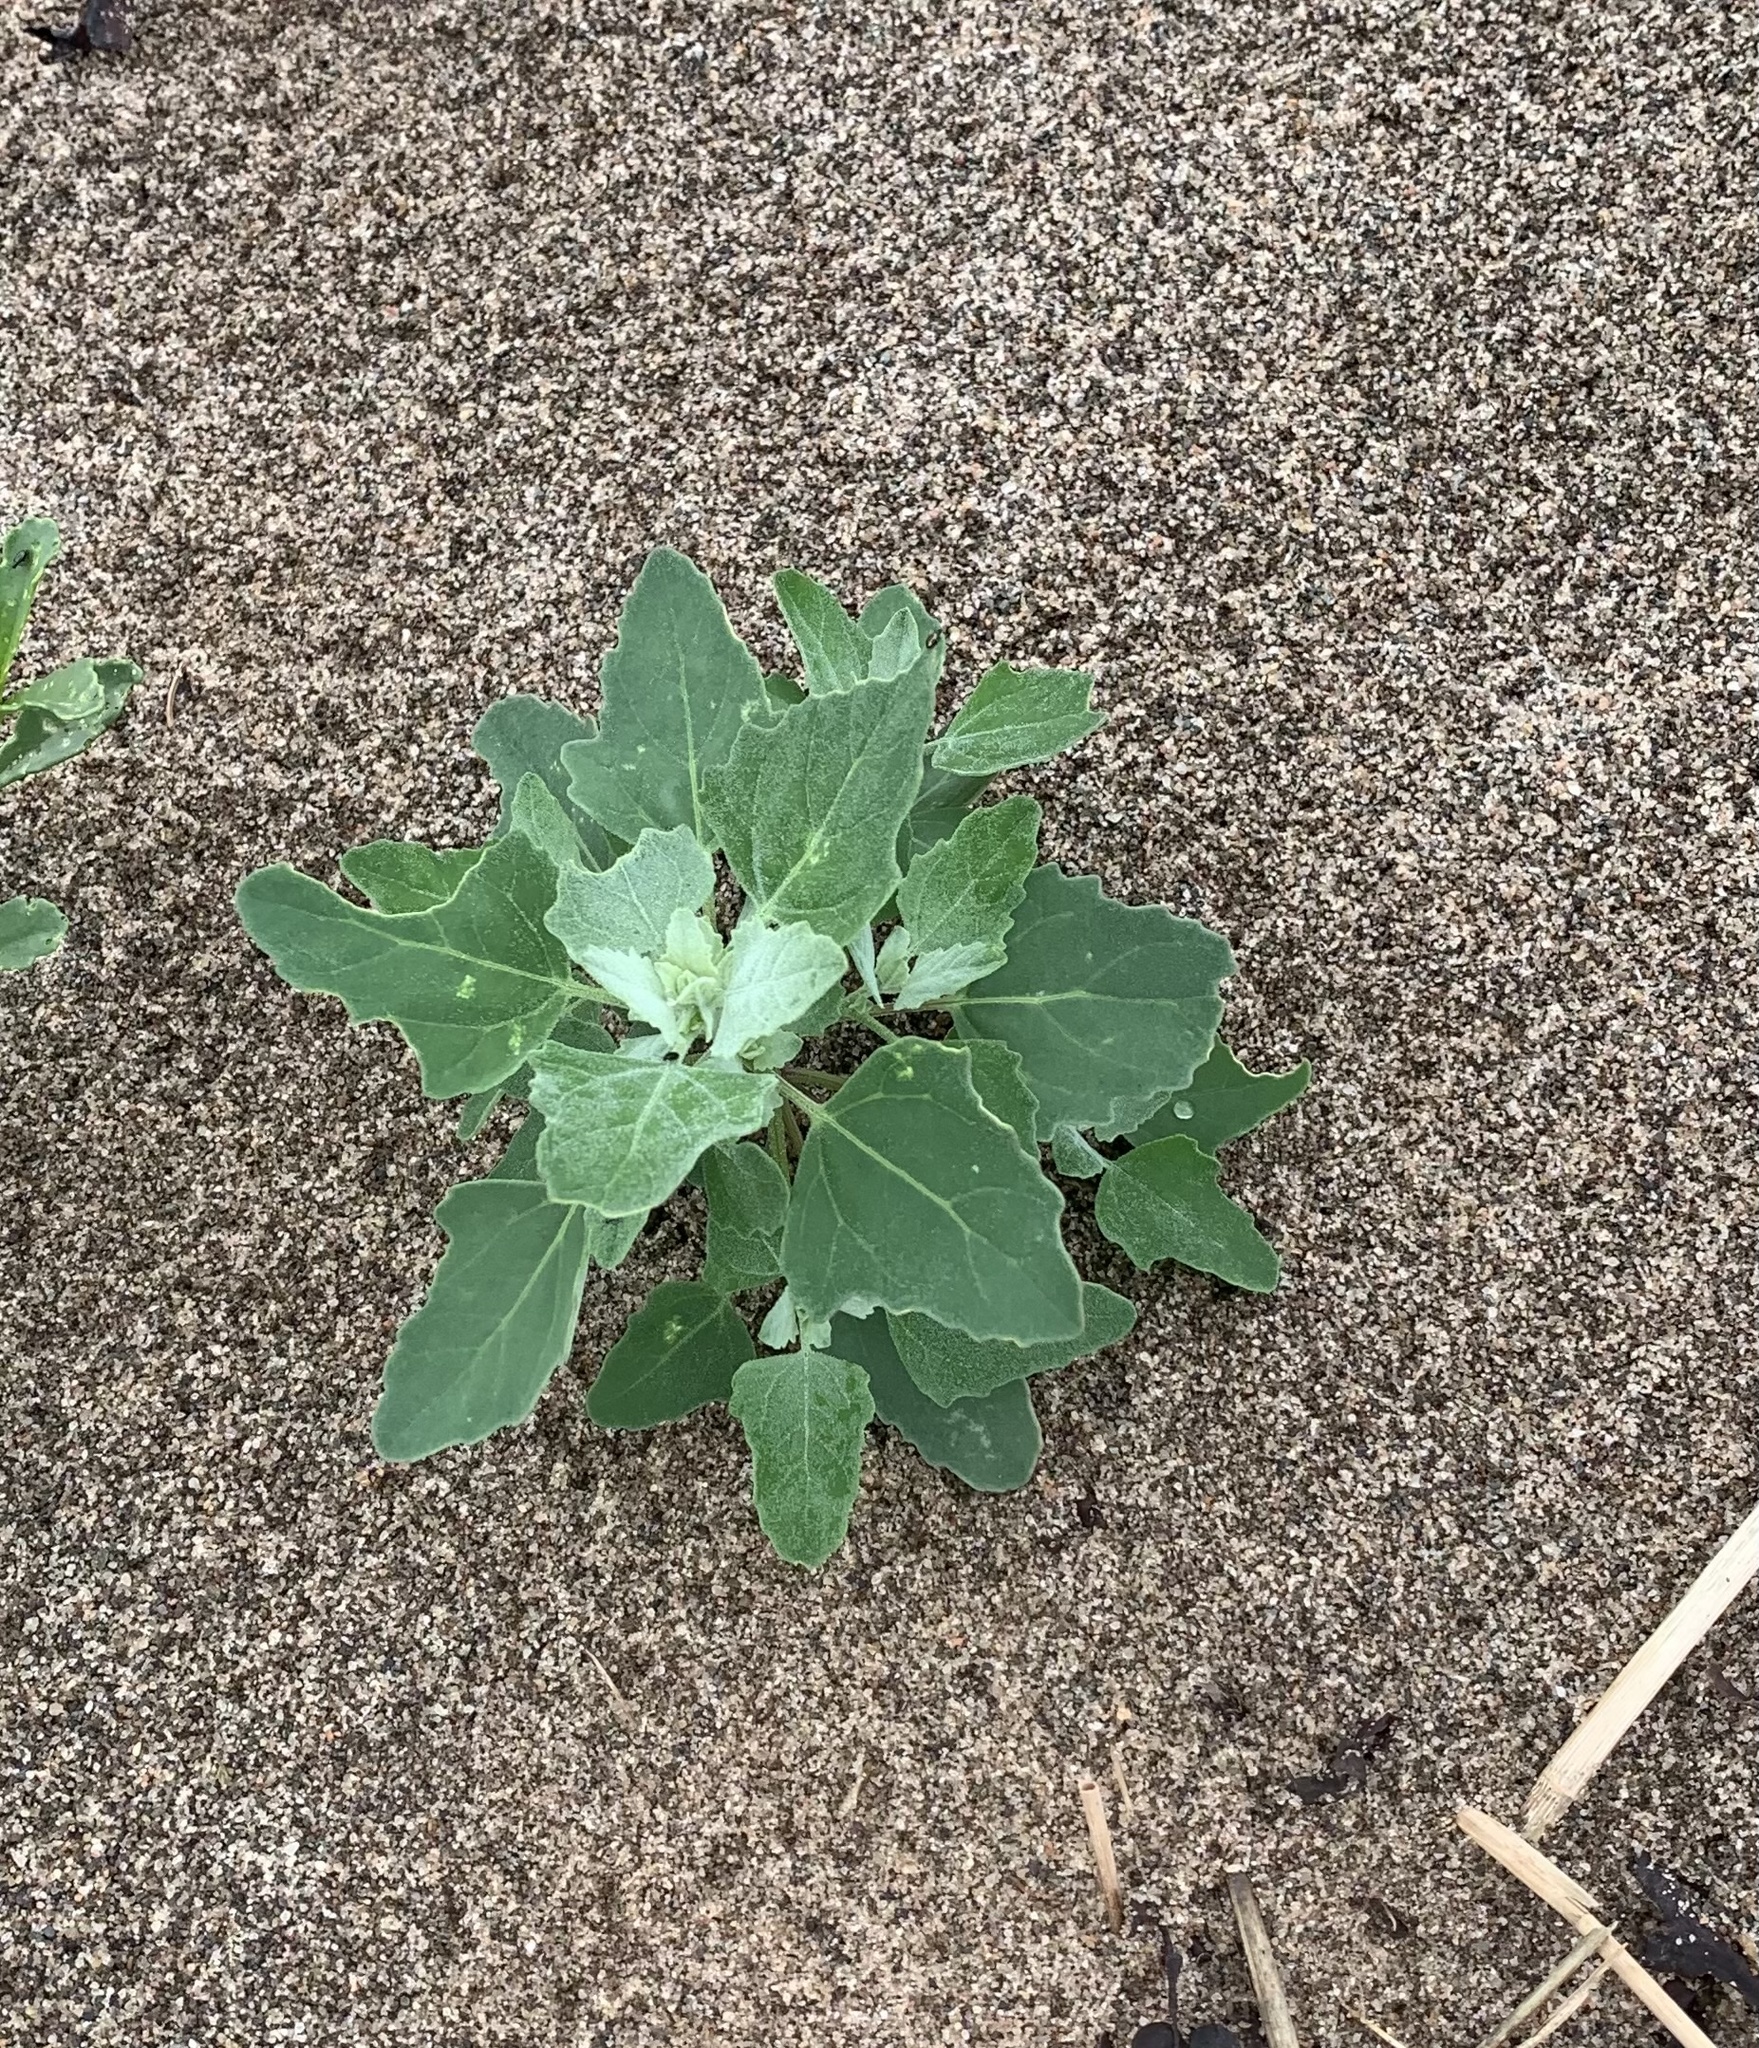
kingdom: Plantae
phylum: Tracheophyta
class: Magnoliopsida
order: Caryophyllales
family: Amaranthaceae
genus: Chenopodium
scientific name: Chenopodium album
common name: Fat-hen
